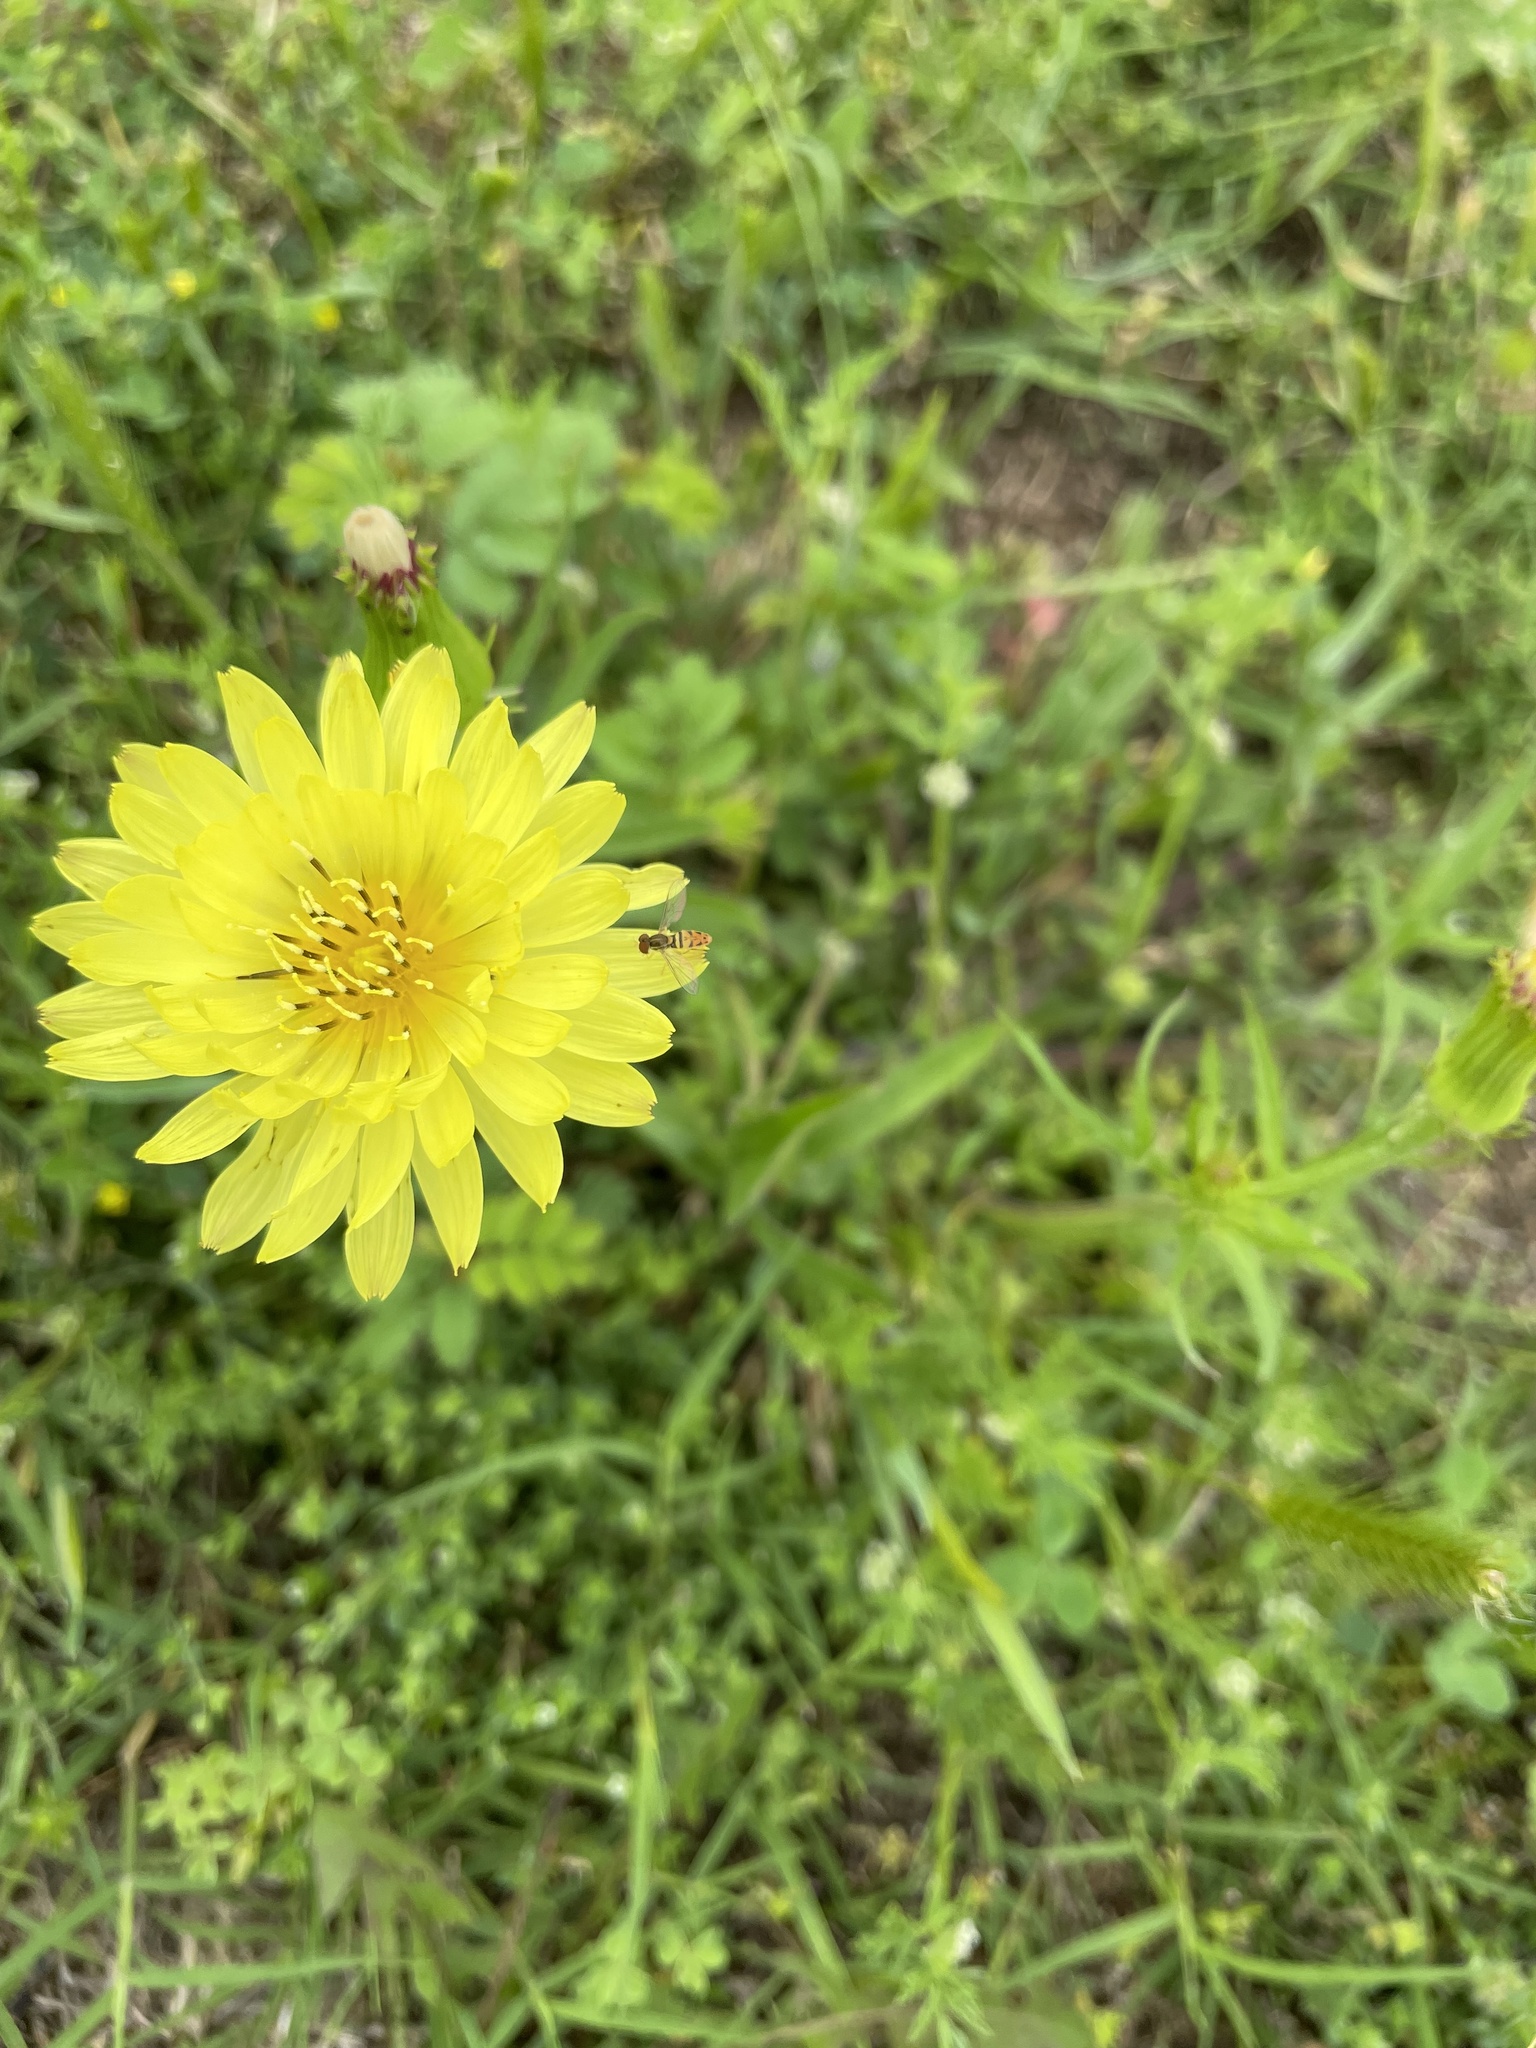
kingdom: Animalia
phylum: Arthropoda
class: Insecta
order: Diptera
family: Syrphidae
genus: Toxomerus
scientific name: Toxomerus marginatus
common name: Syrphid fly
